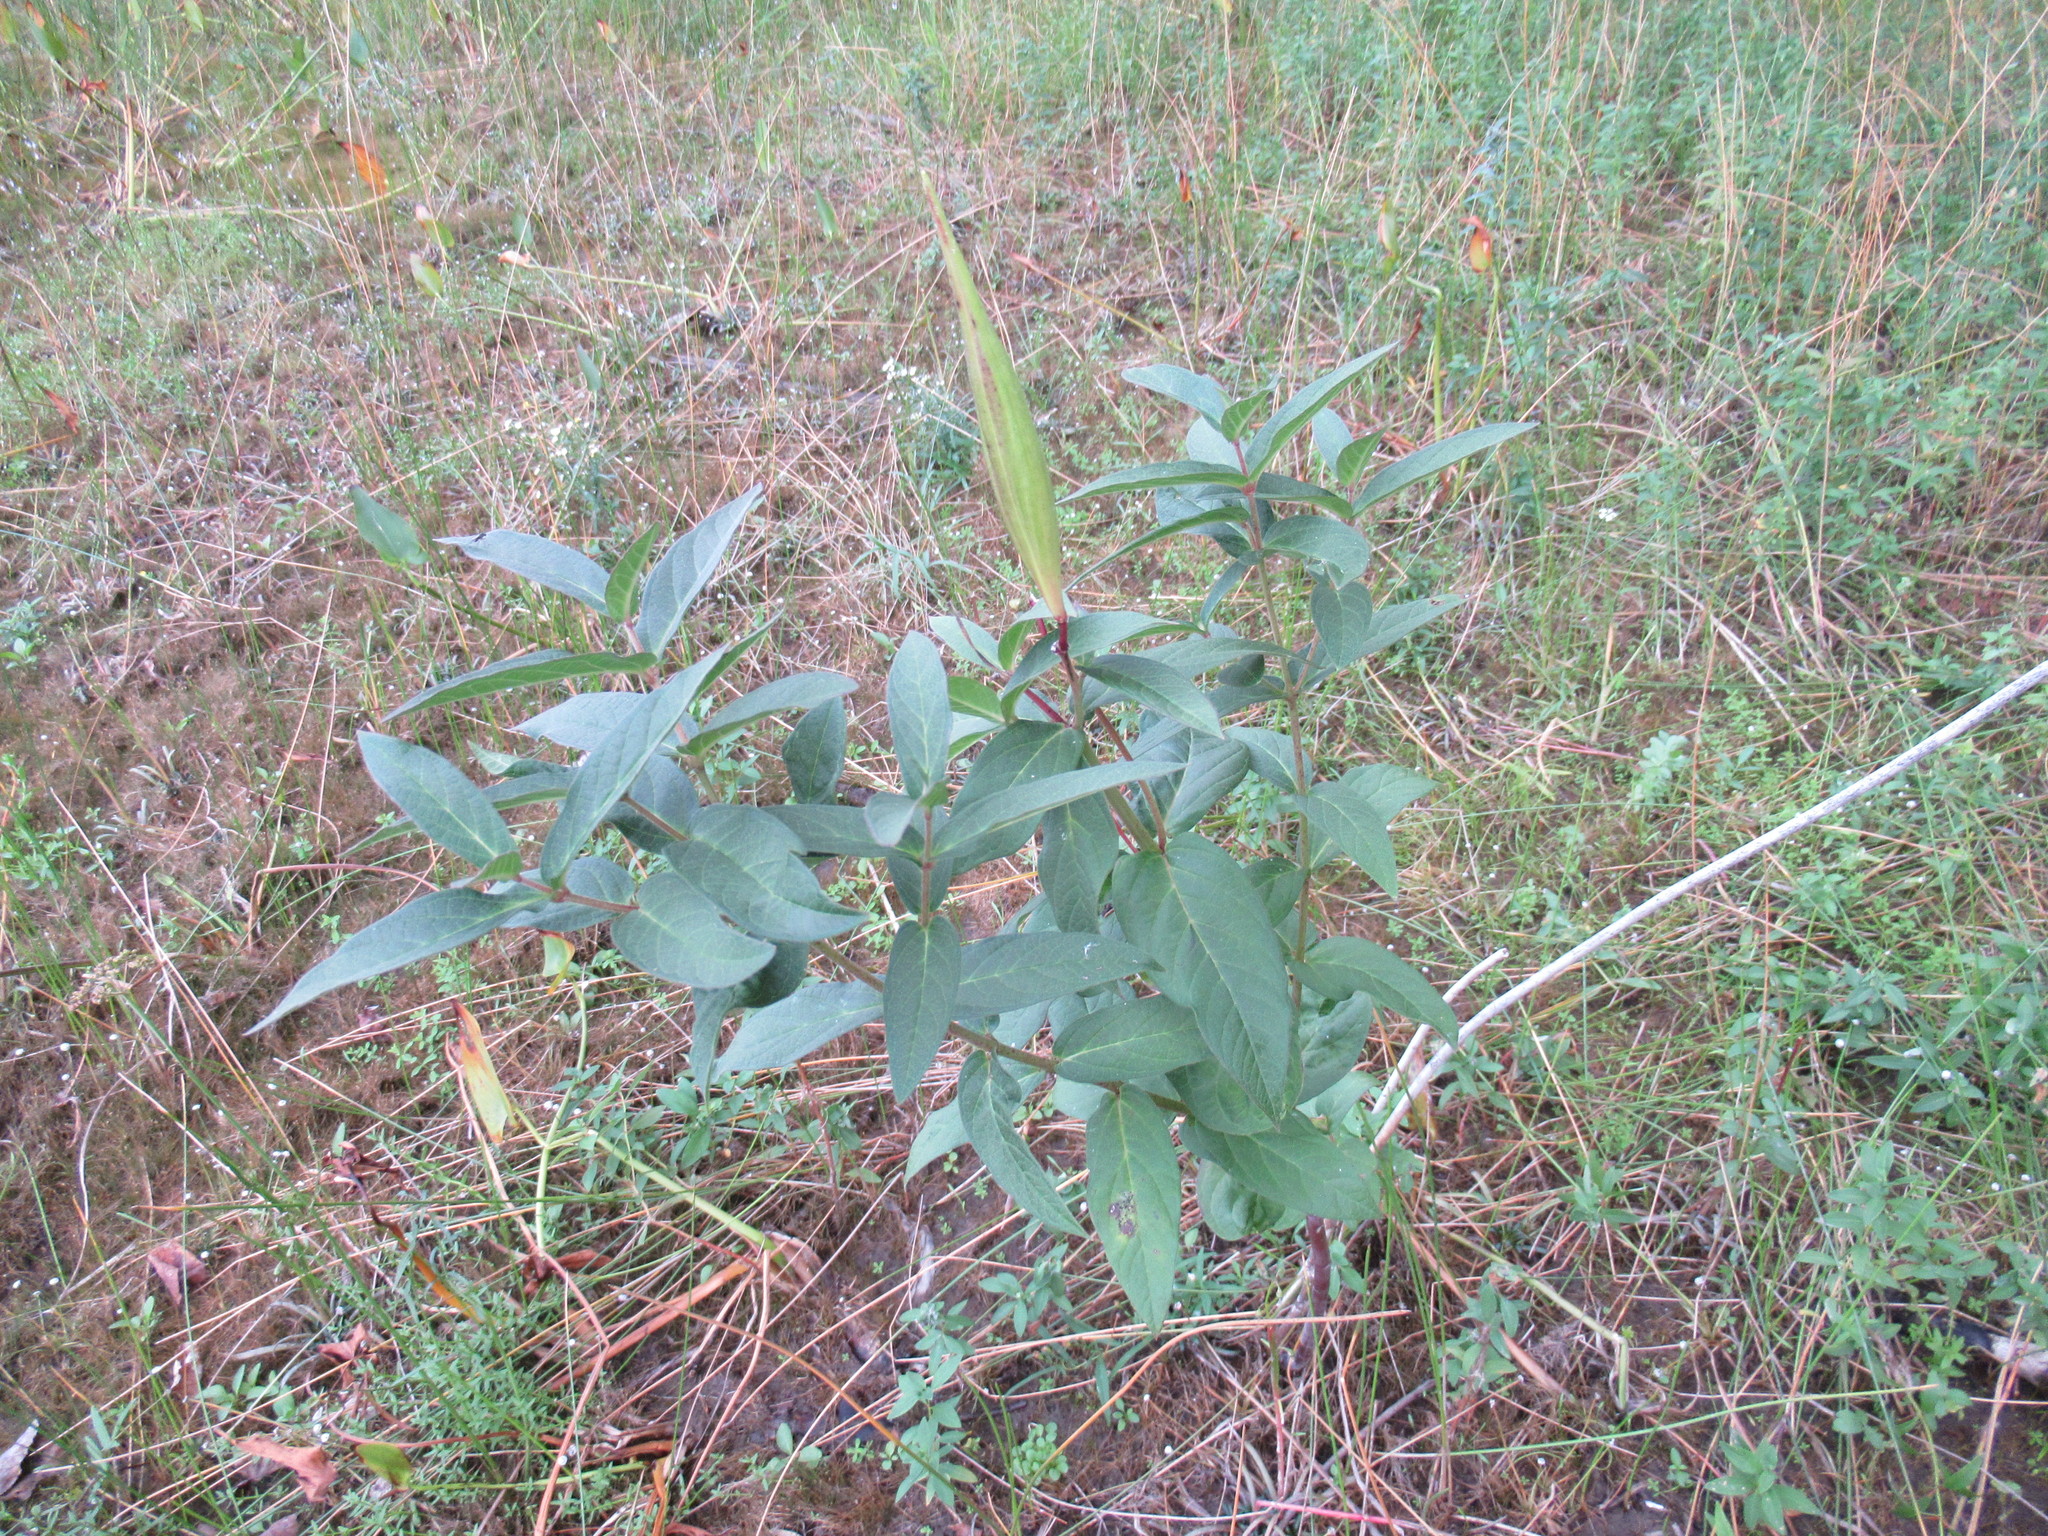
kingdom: Plantae
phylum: Tracheophyta
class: Magnoliopsida
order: Gentianales
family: Apocynaceae
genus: Asclepias
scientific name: Asclepias incarnata
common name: Swamp milkweed
